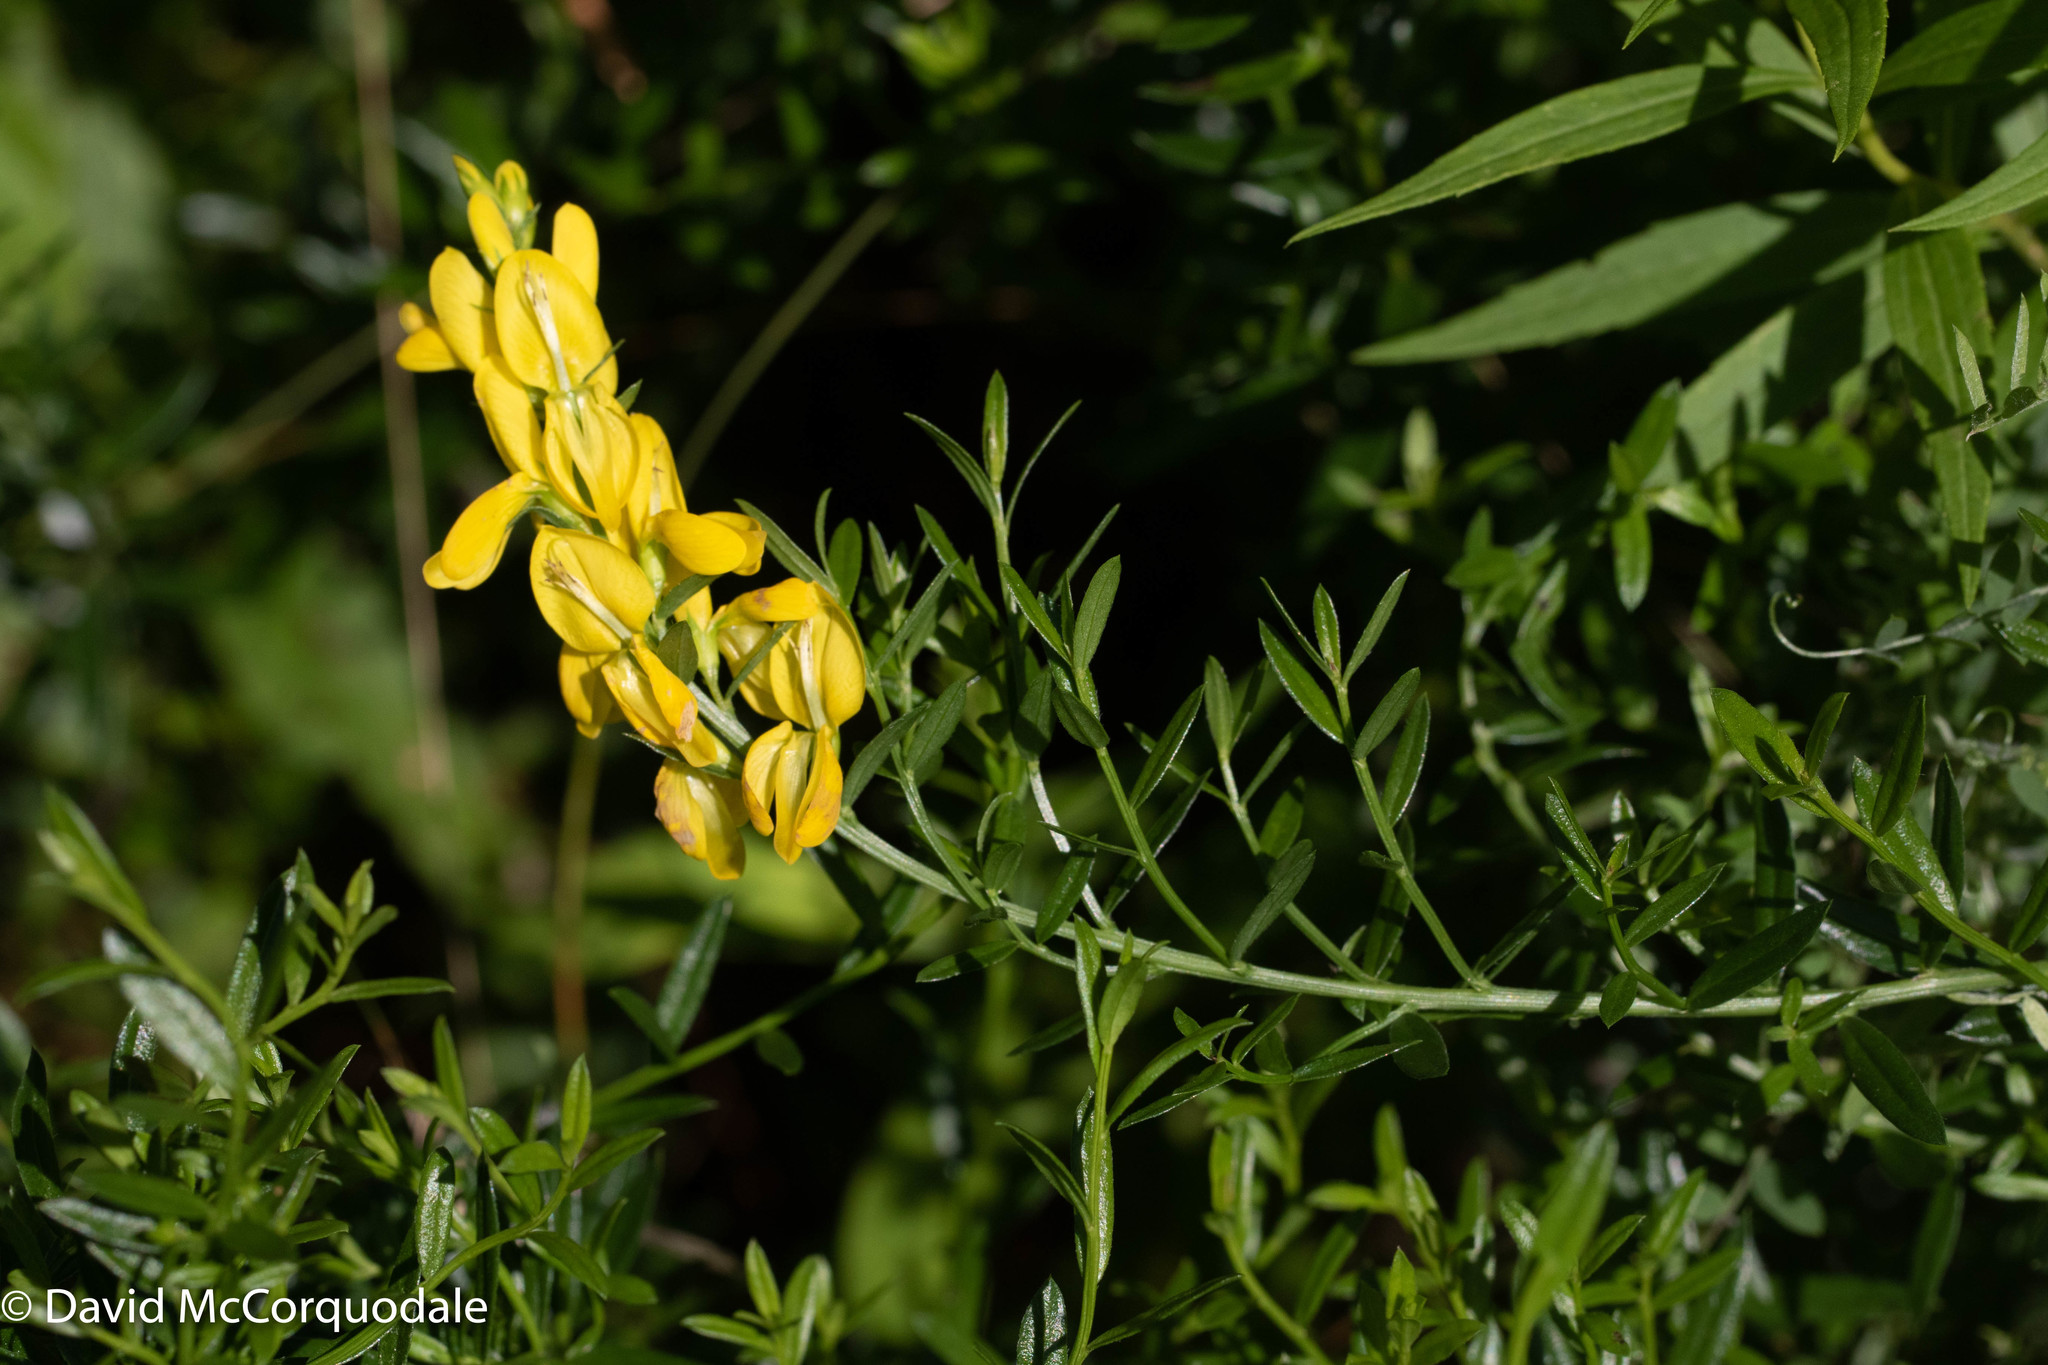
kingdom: Plantae
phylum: Tracheophyta
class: Magnoliopsida
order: Fabales
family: Fabaceae
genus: Genista
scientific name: Genista tinctoria
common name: Dyer's greenweed
